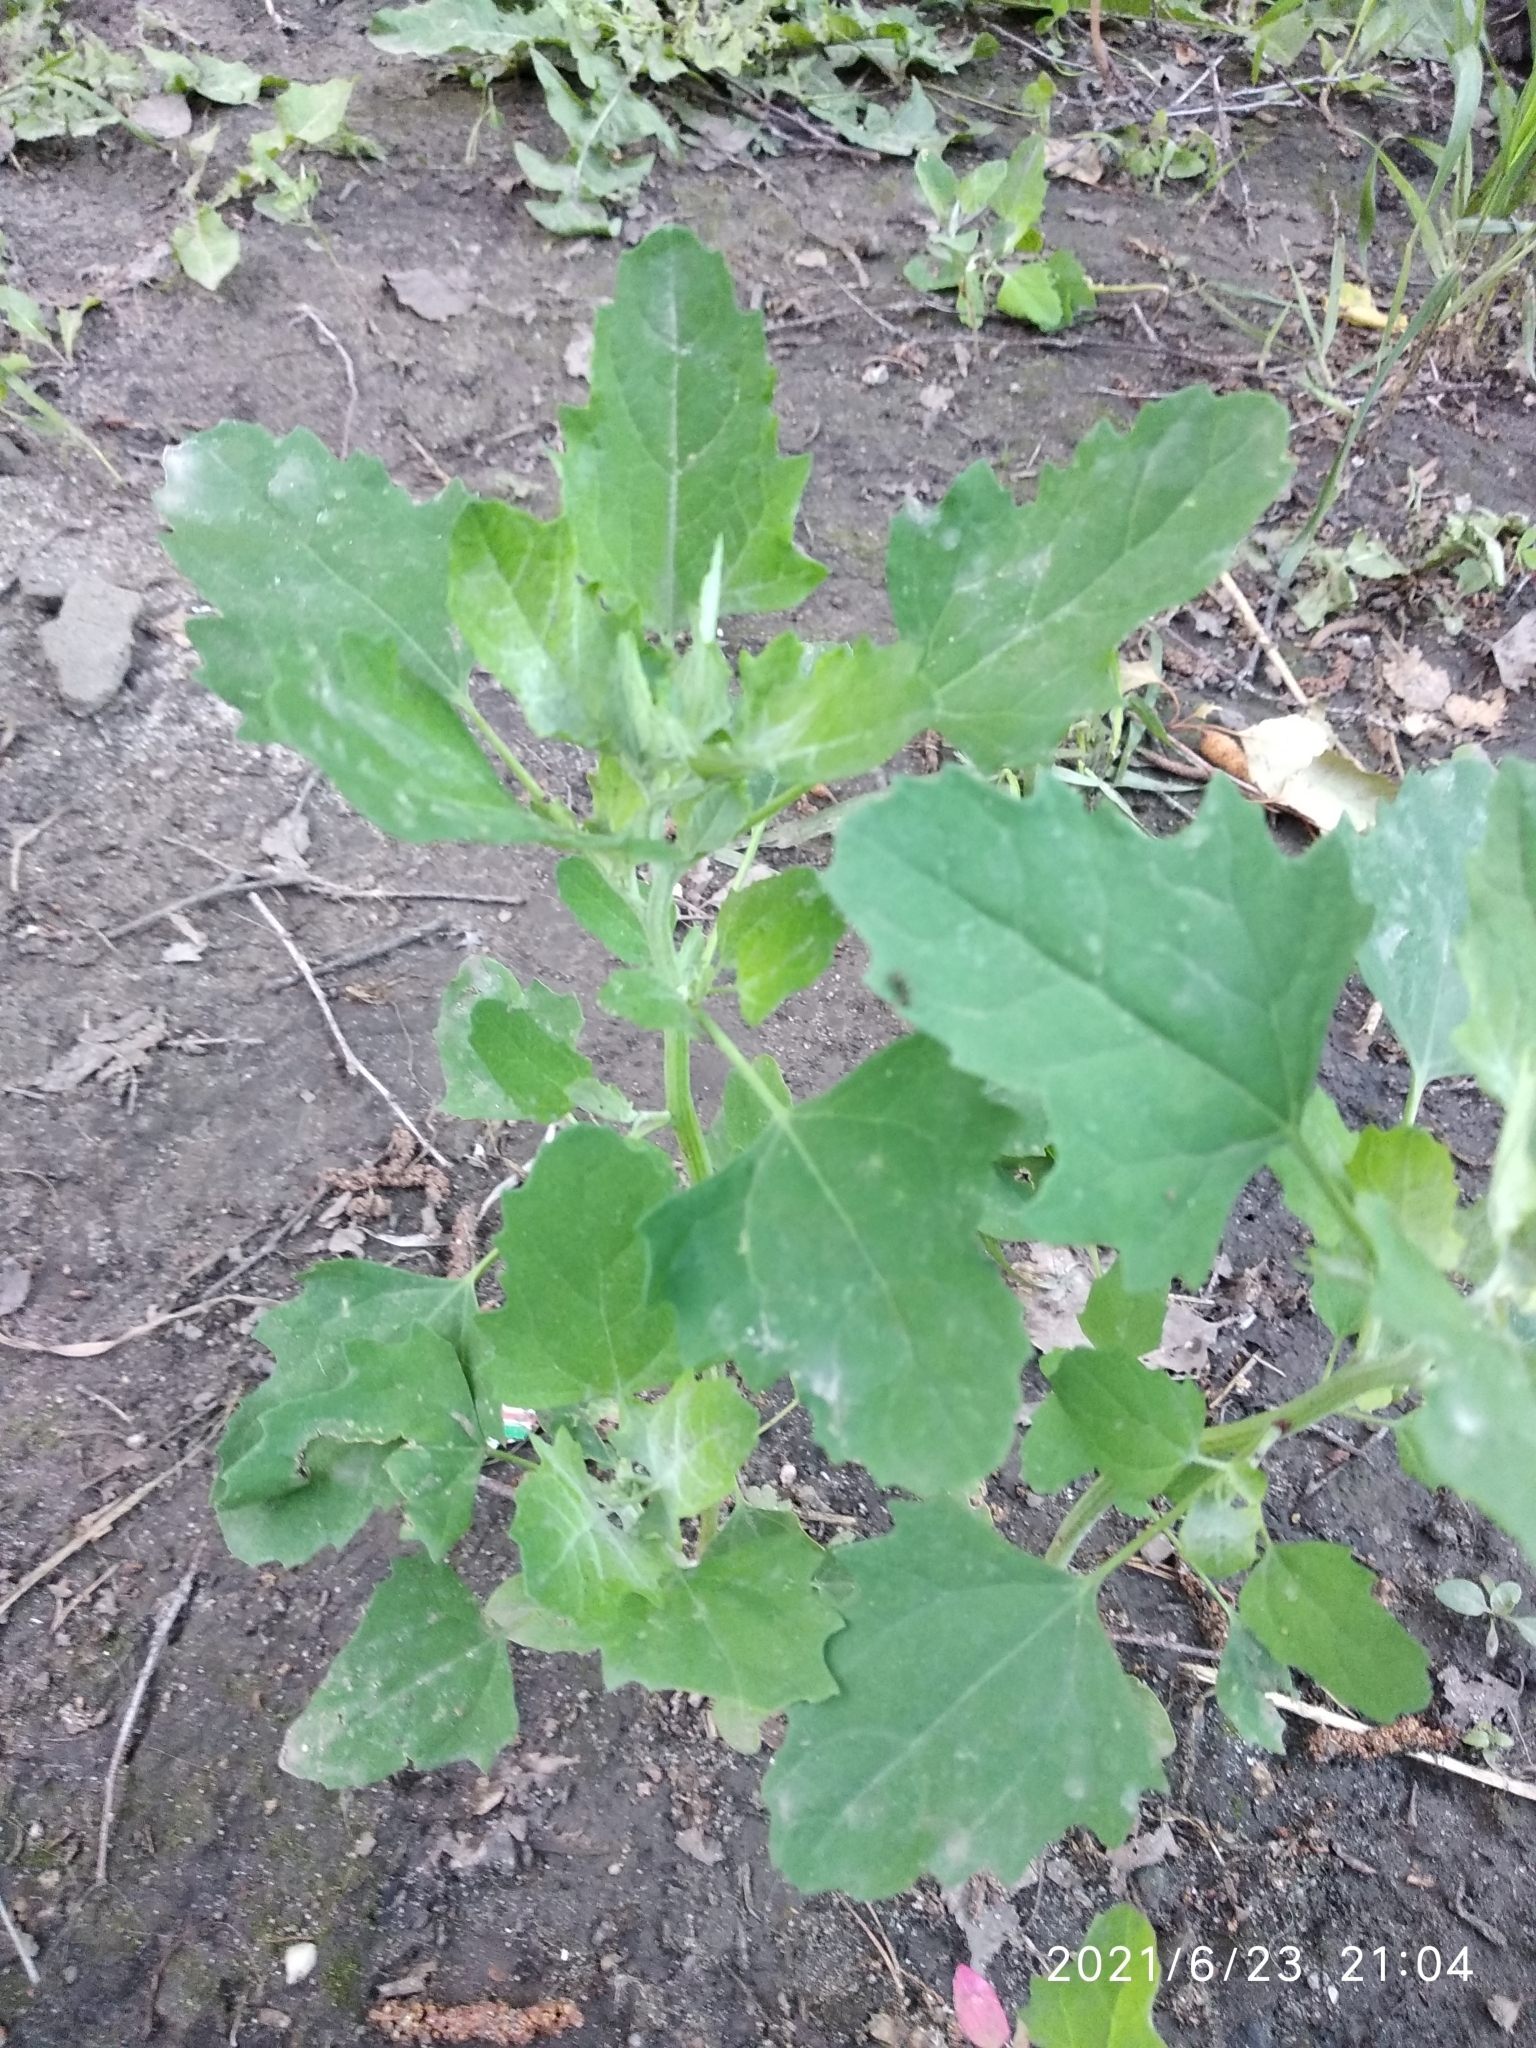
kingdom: Plantae
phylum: Tracheophyta
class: Magnoliopsida
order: Caryophyllales
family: Amaranthaceae
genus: Chenopodium
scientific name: Chenopodium album
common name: Fat-hen
